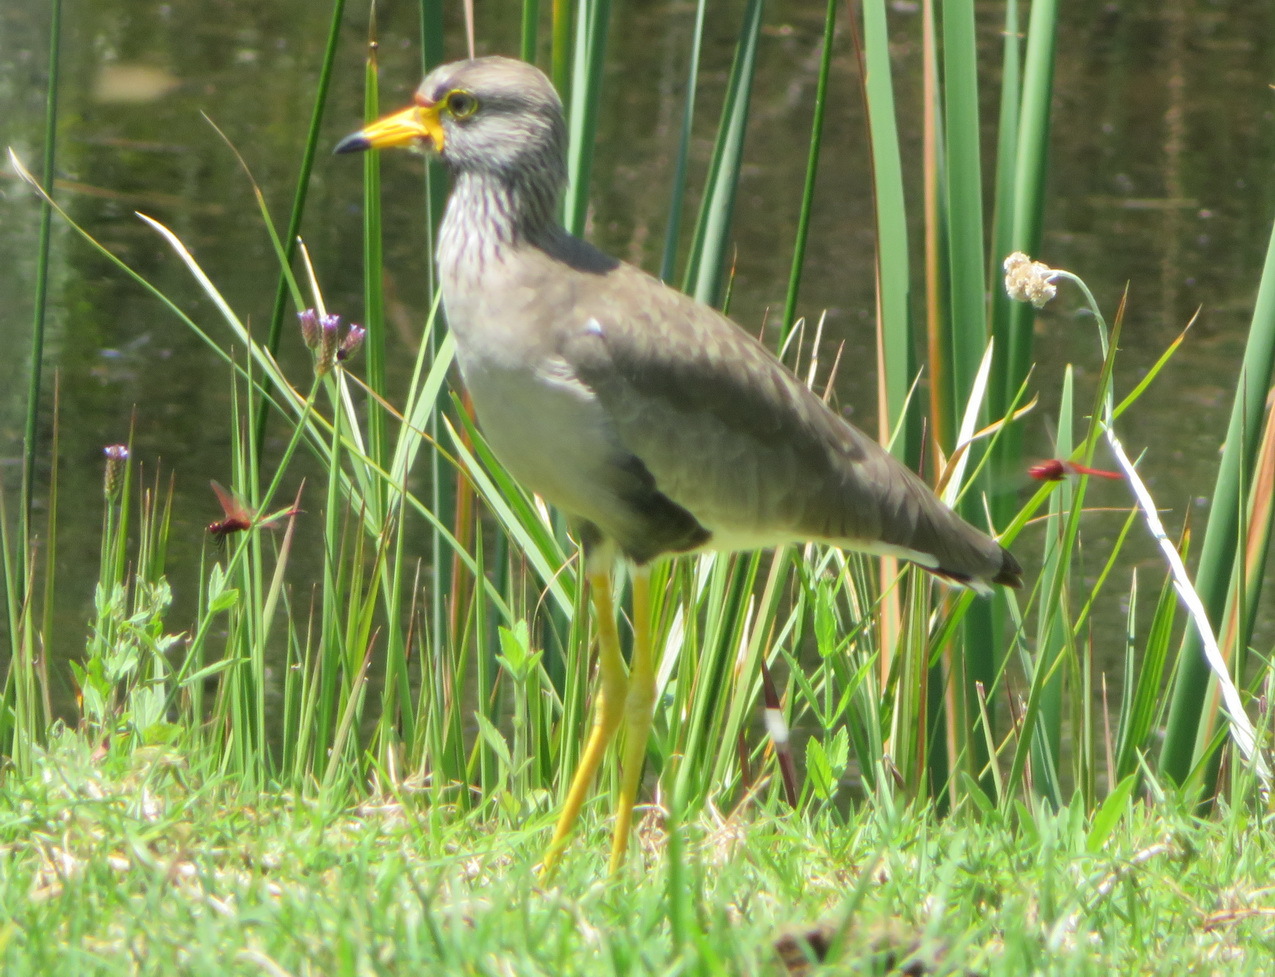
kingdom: Animalia
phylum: Chordata
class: Aves
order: Charadriiformes
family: Charadriidae
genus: Vanellus
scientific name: Vanellus senegallus
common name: African wattled lapwing
